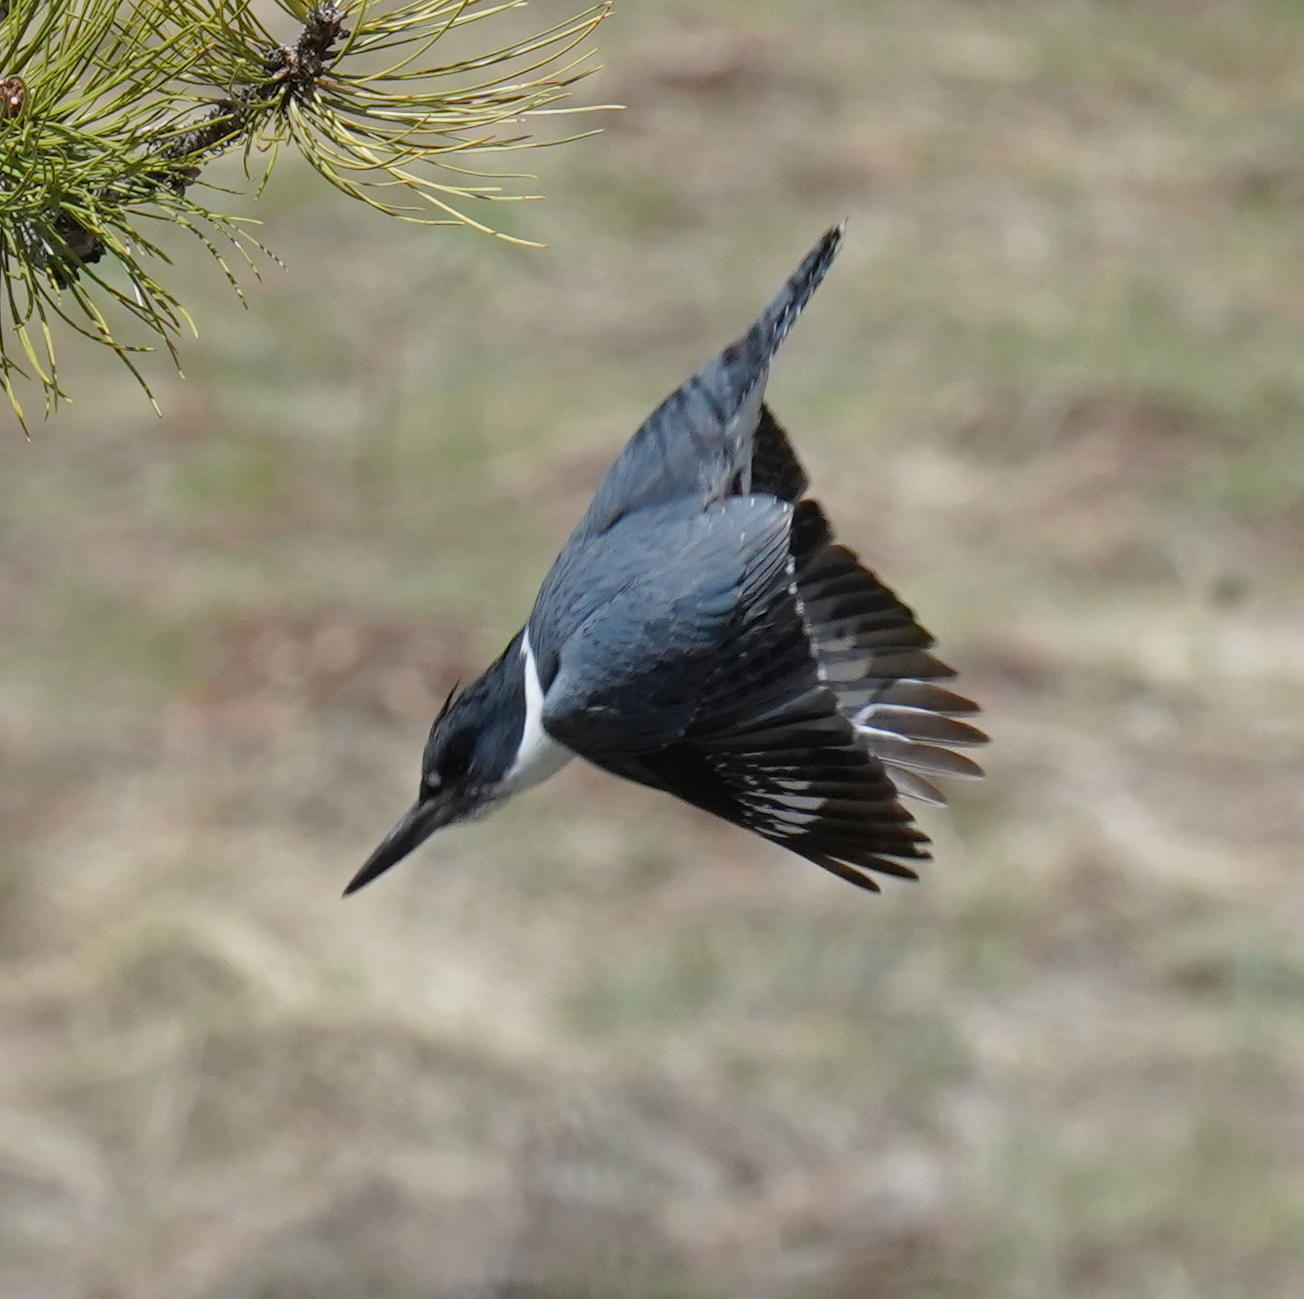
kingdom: Animalia
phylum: Chordata
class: Aves
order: Coraciiformes
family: Alcedinidae
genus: Megaceryle
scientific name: Megaceryle alcyon
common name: Belted kingfisher
